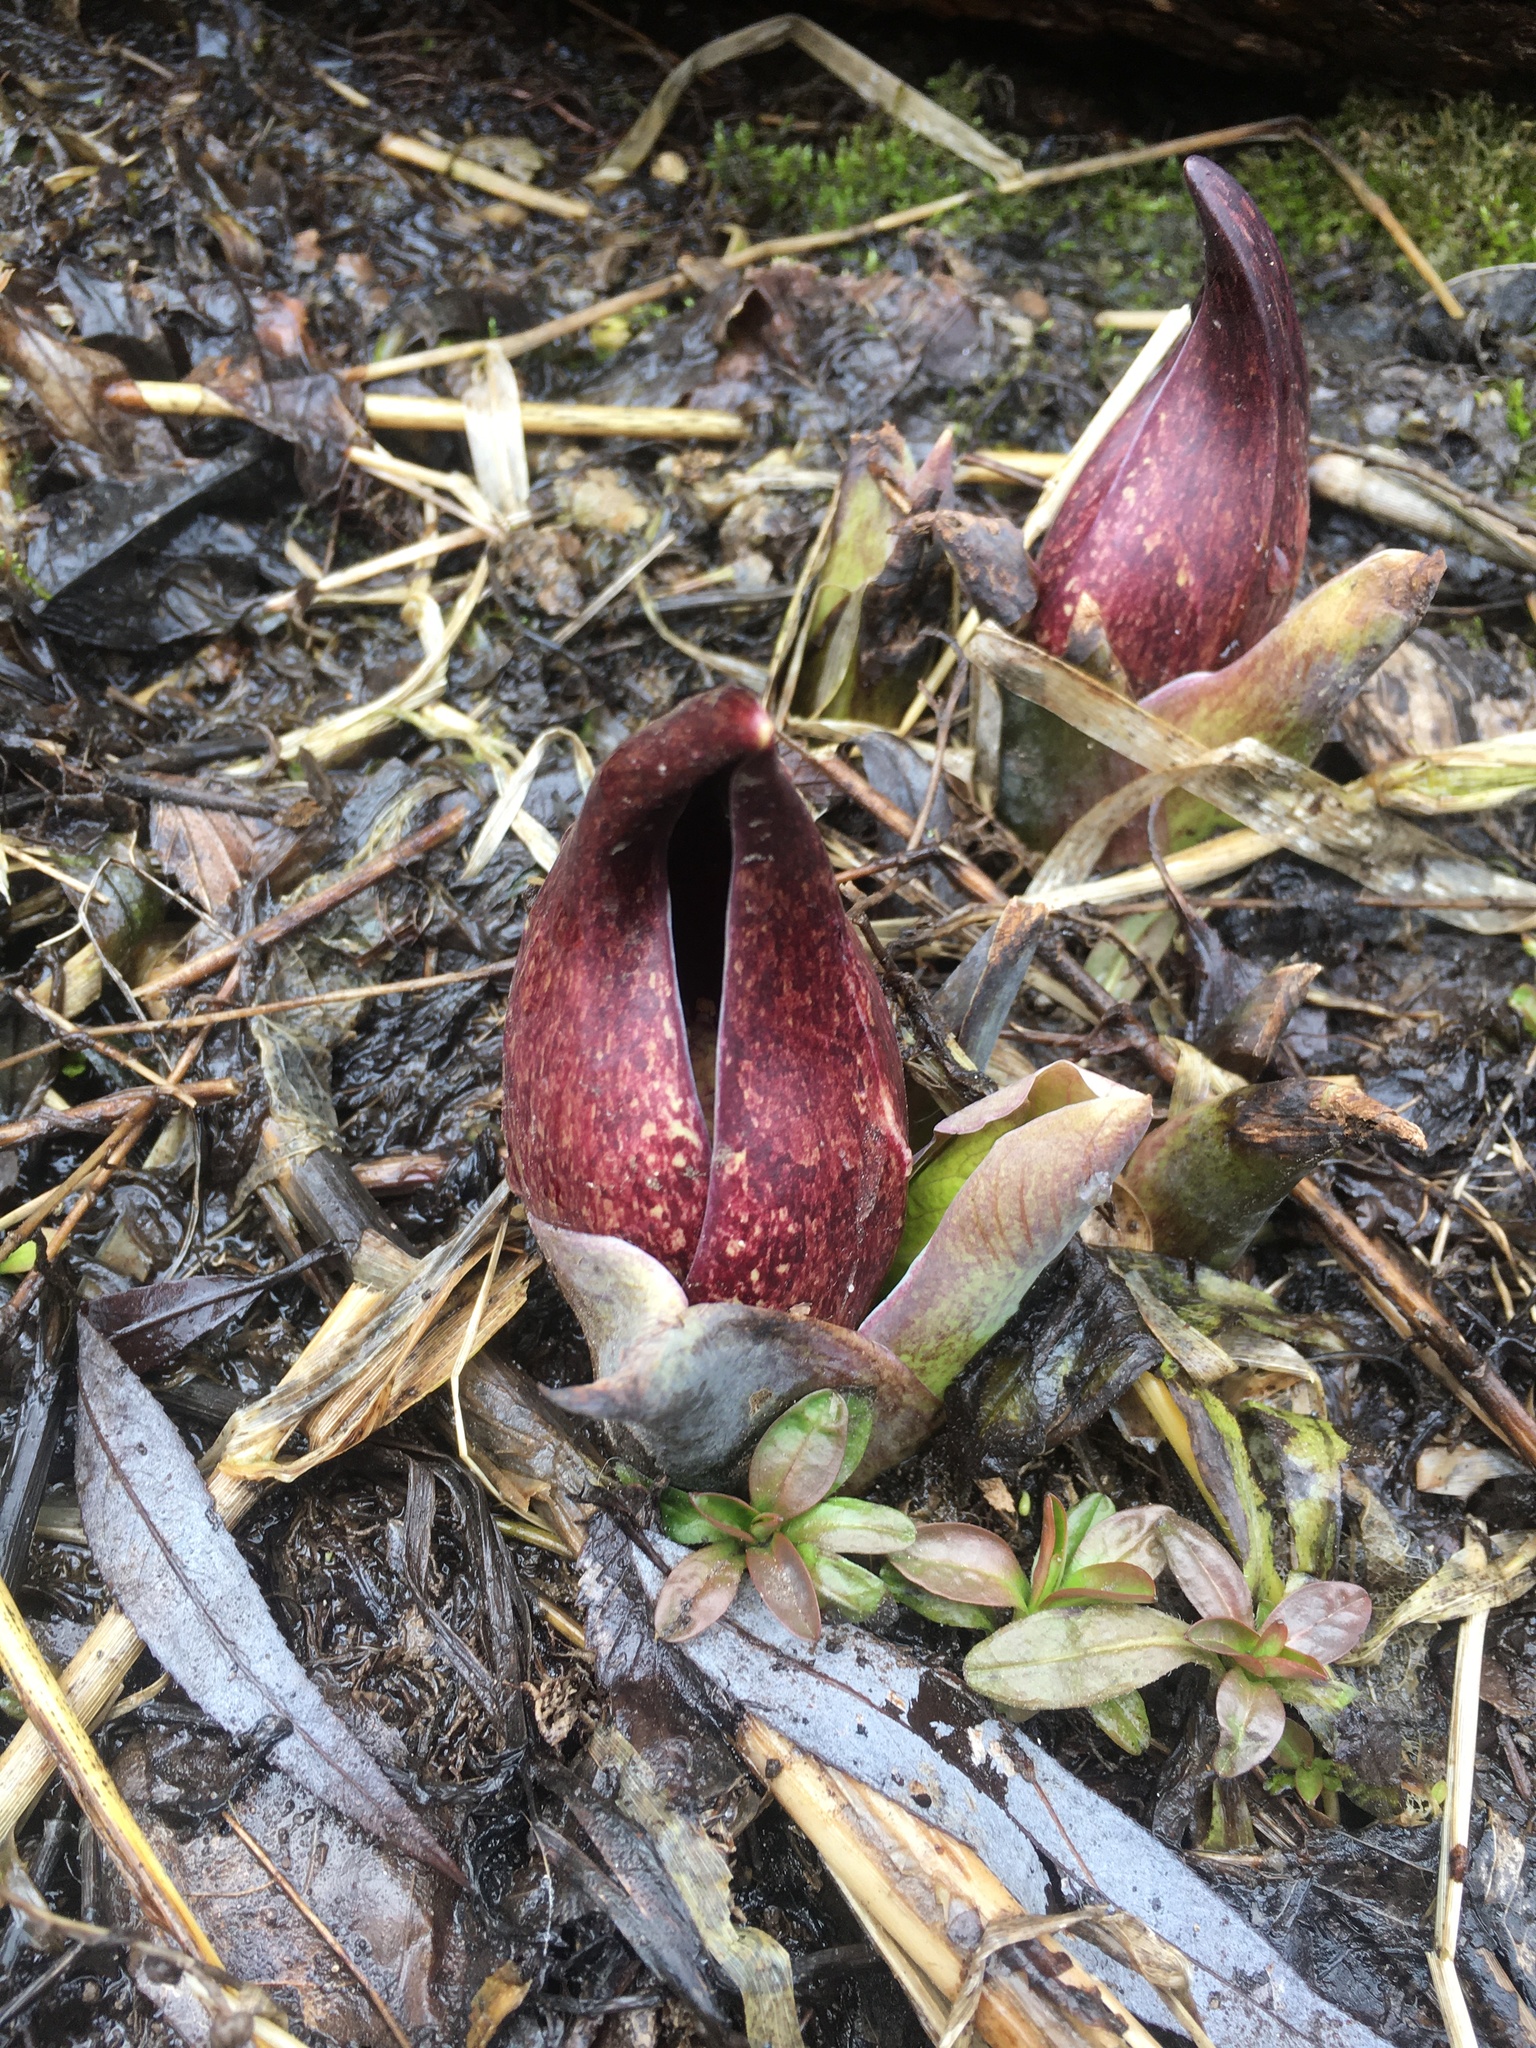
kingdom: Plantae
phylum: Tracheophyta
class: Liliopsida
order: Alismatales
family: Araceae
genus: Symplocarpus
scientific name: Symplocarpus foetidus
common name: Eastern skunk cabbage
